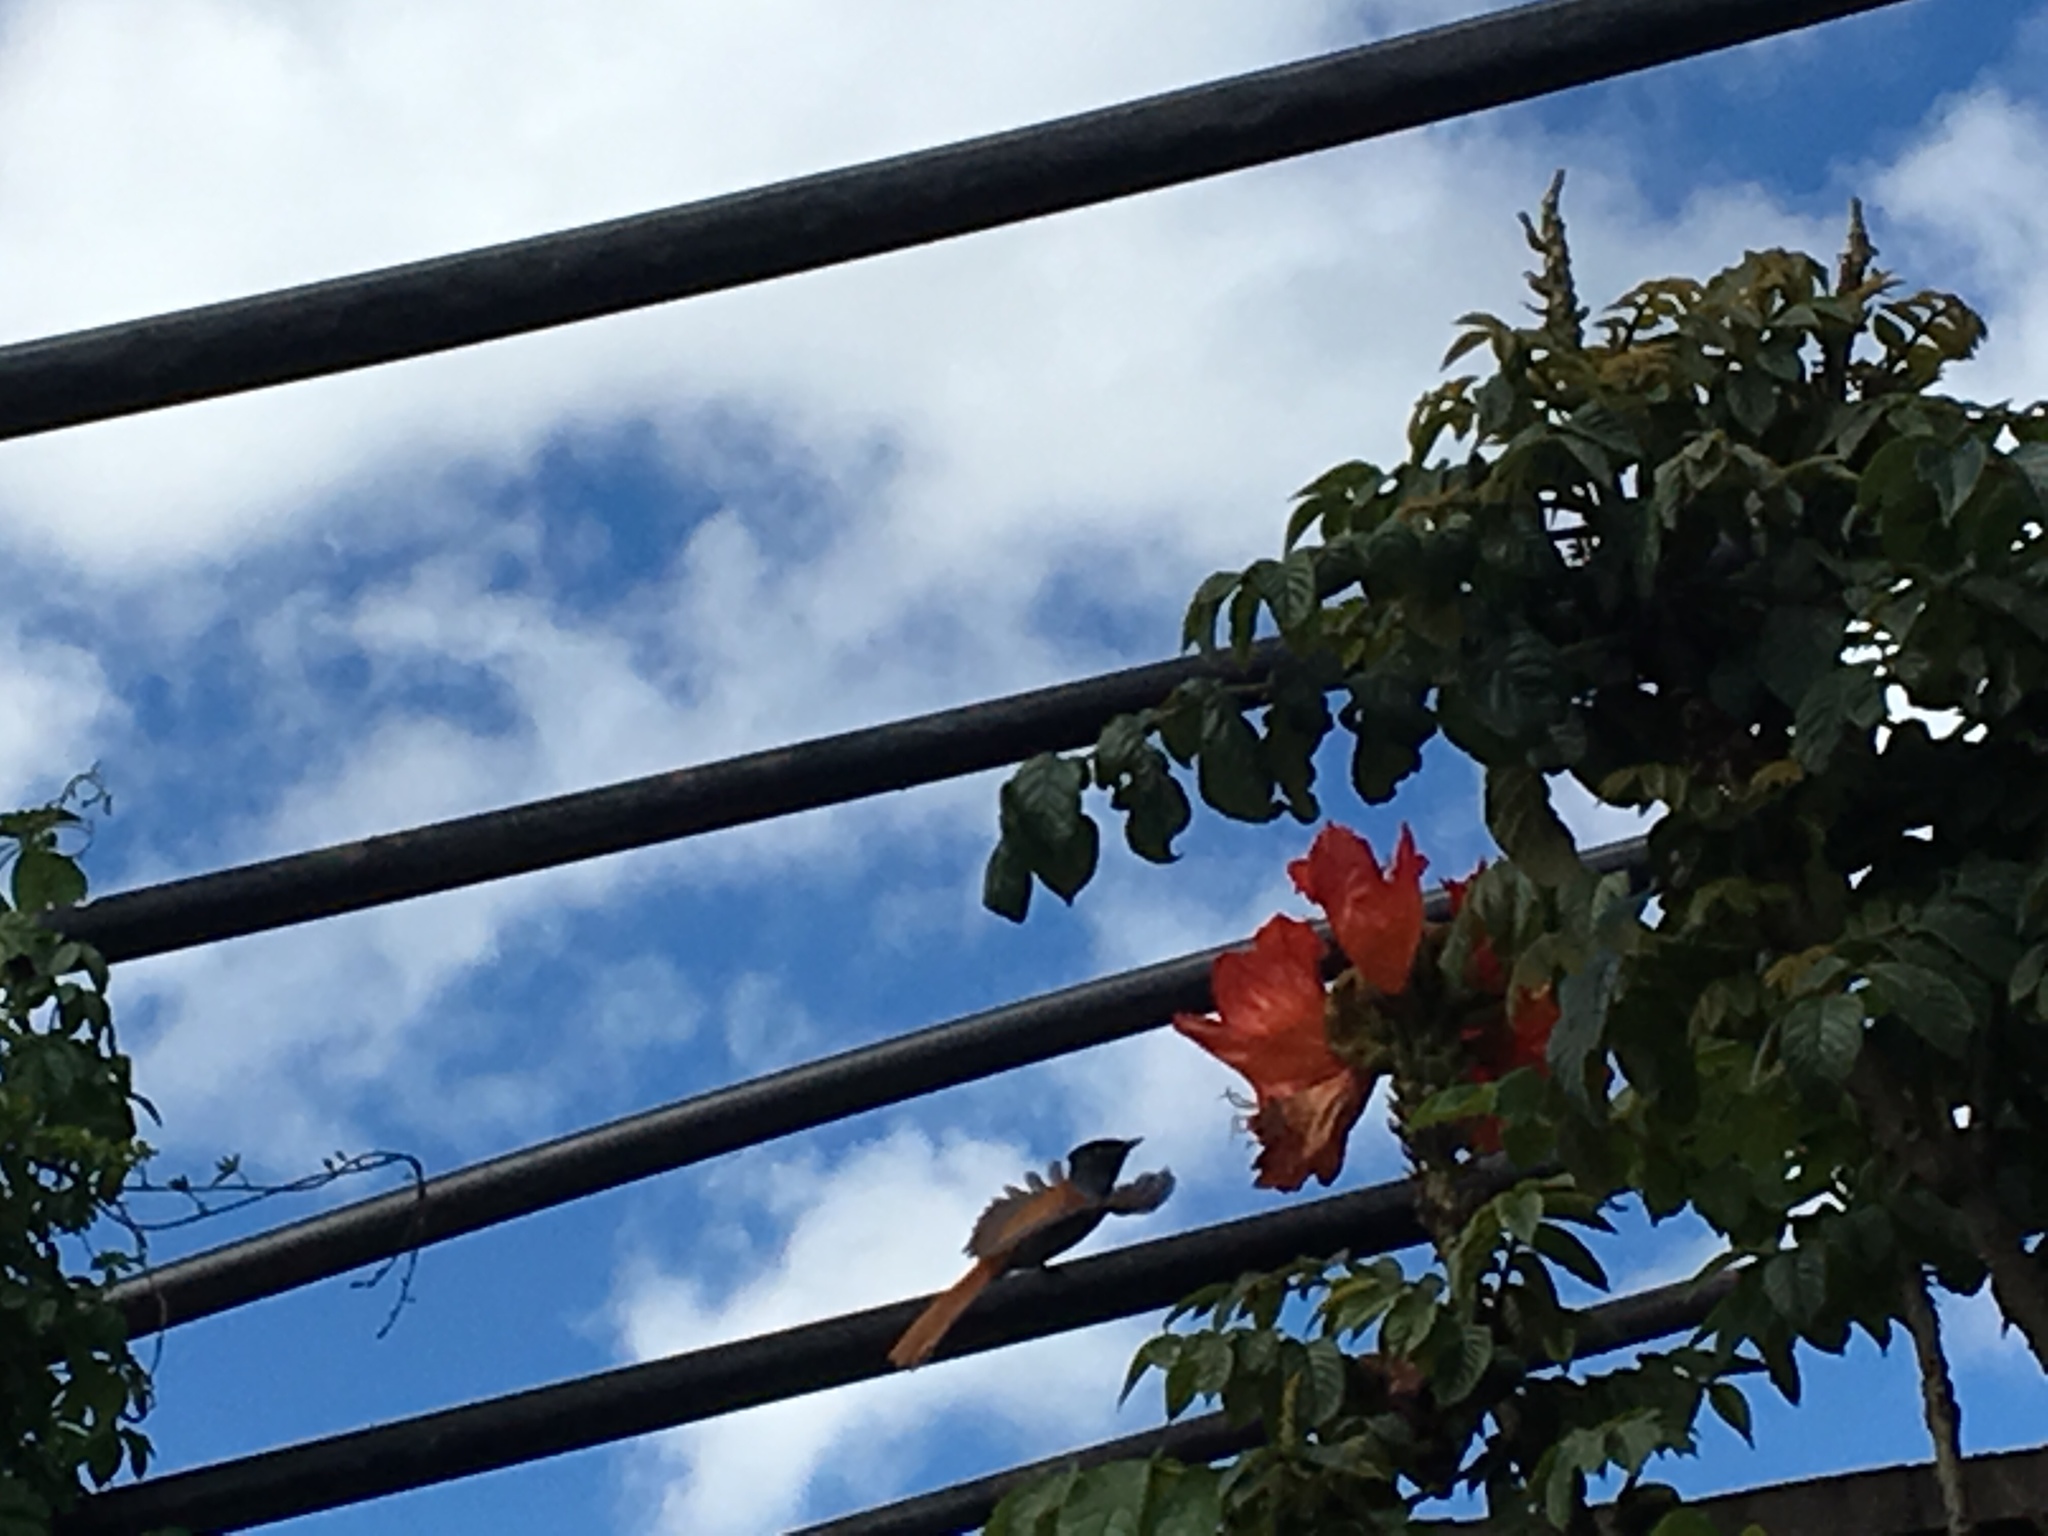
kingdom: Animalia
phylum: Chordata
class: Aves
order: Passeriformes
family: Monarchidae
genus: Terpsiphone
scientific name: Terpsiphone viridis
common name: African paradise flycatcher
